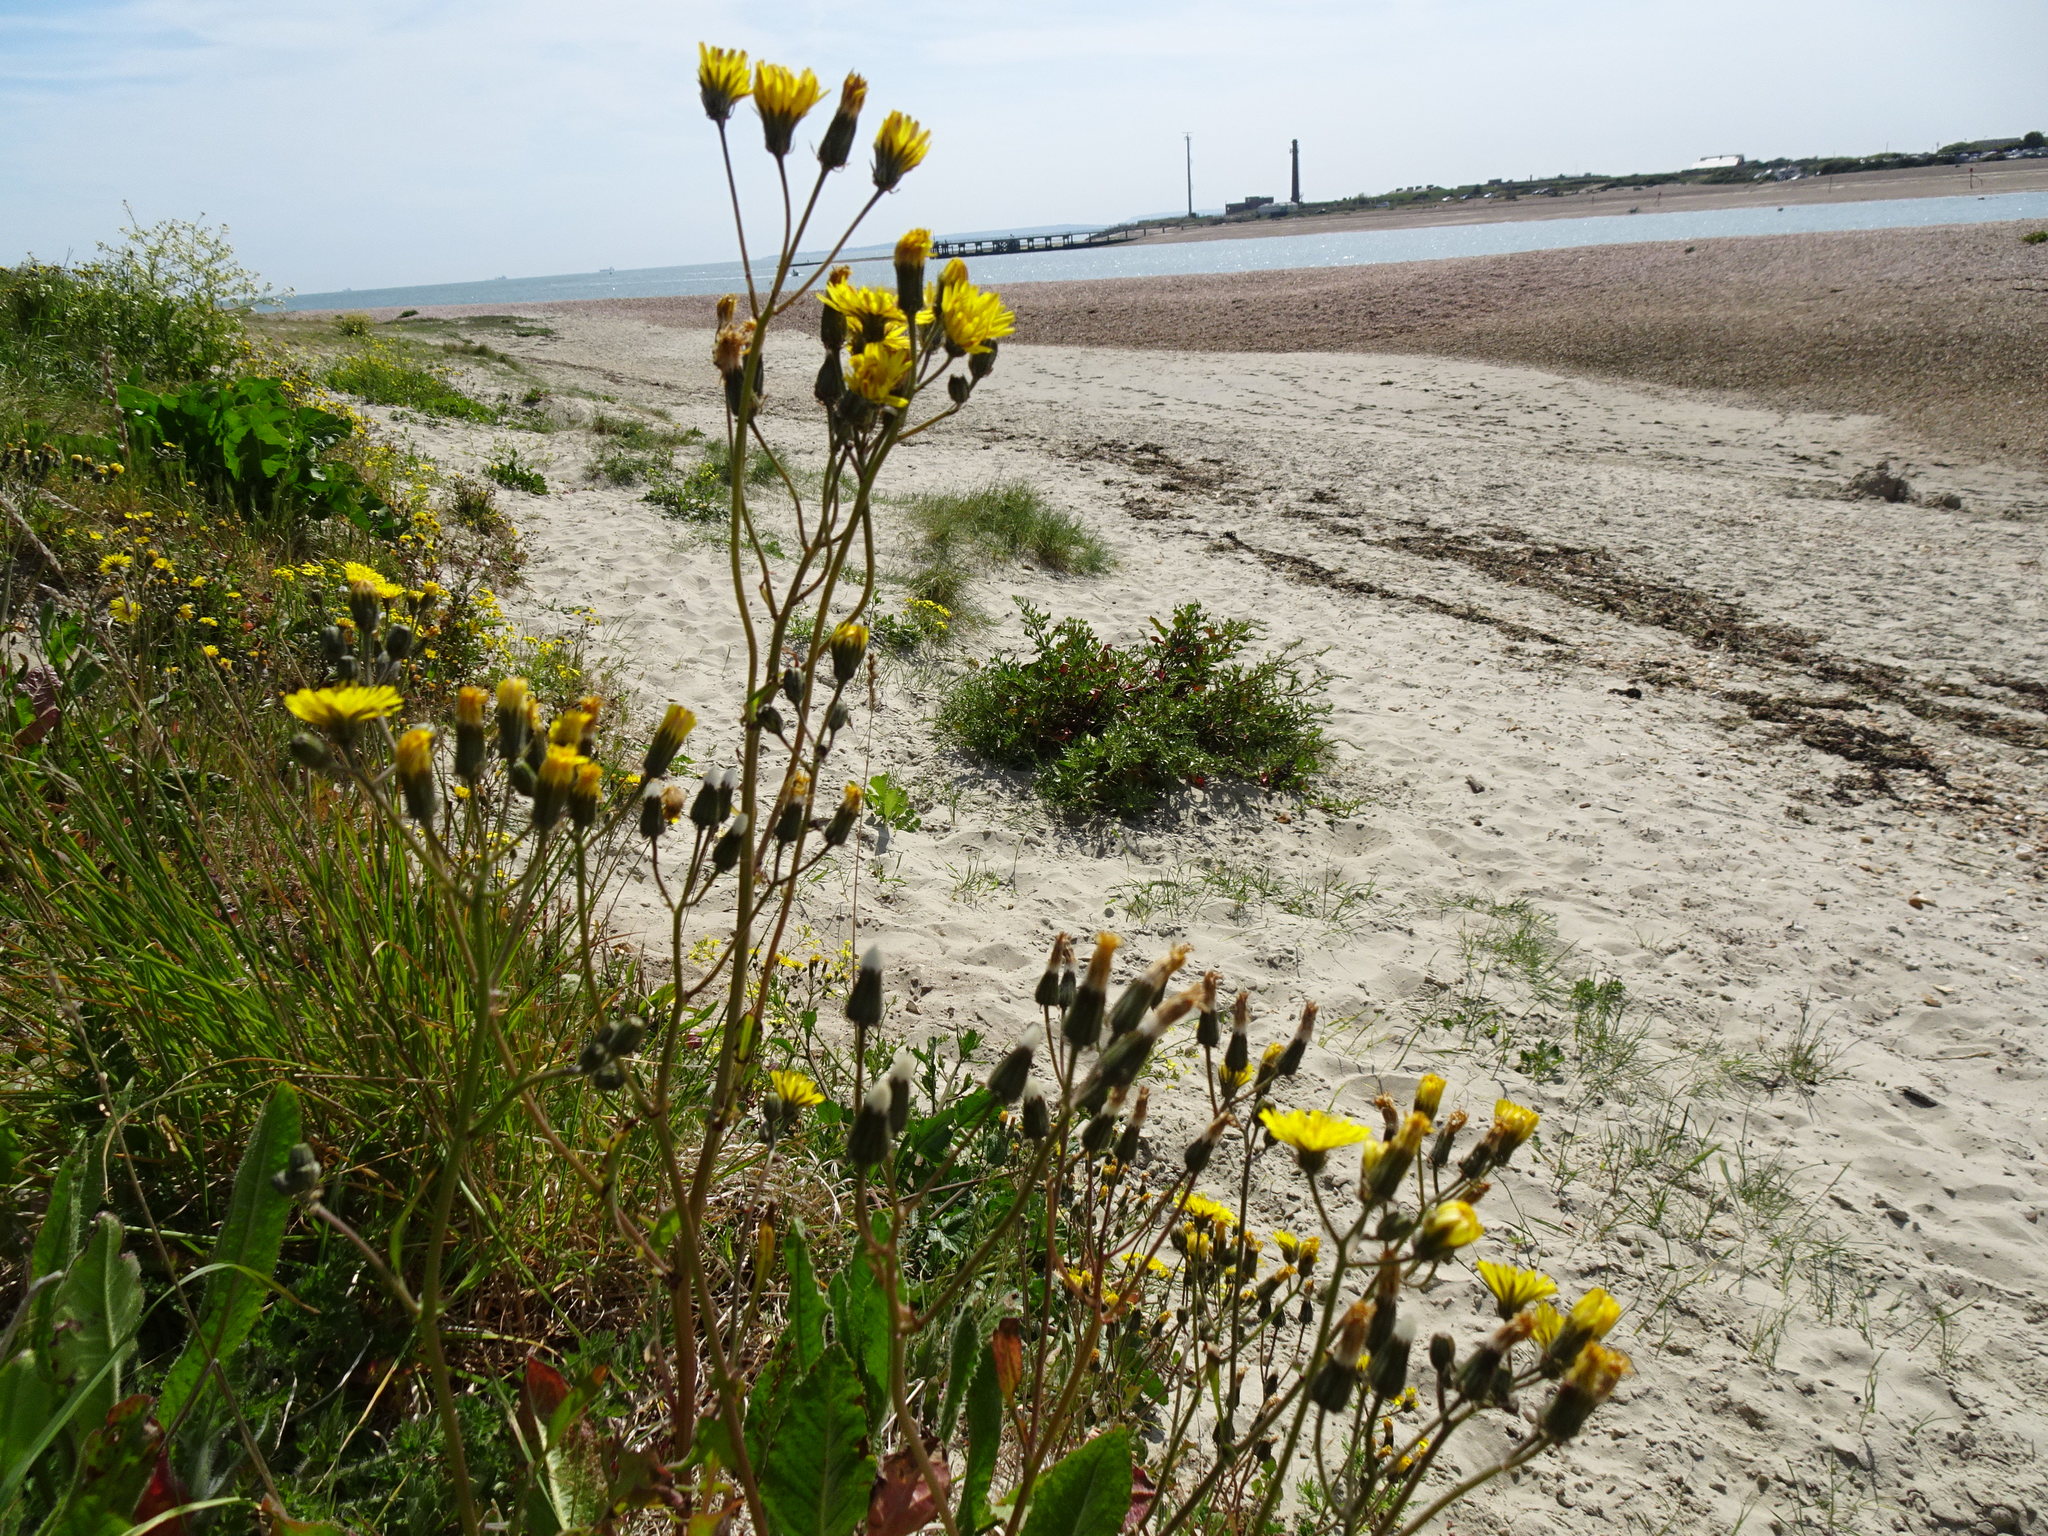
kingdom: Plantae
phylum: Tracheophyta
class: Magnoliopsida
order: Asterales
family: Asteraceae
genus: Crepis
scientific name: Crepis vesicaria
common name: Beaked hawksbeard
